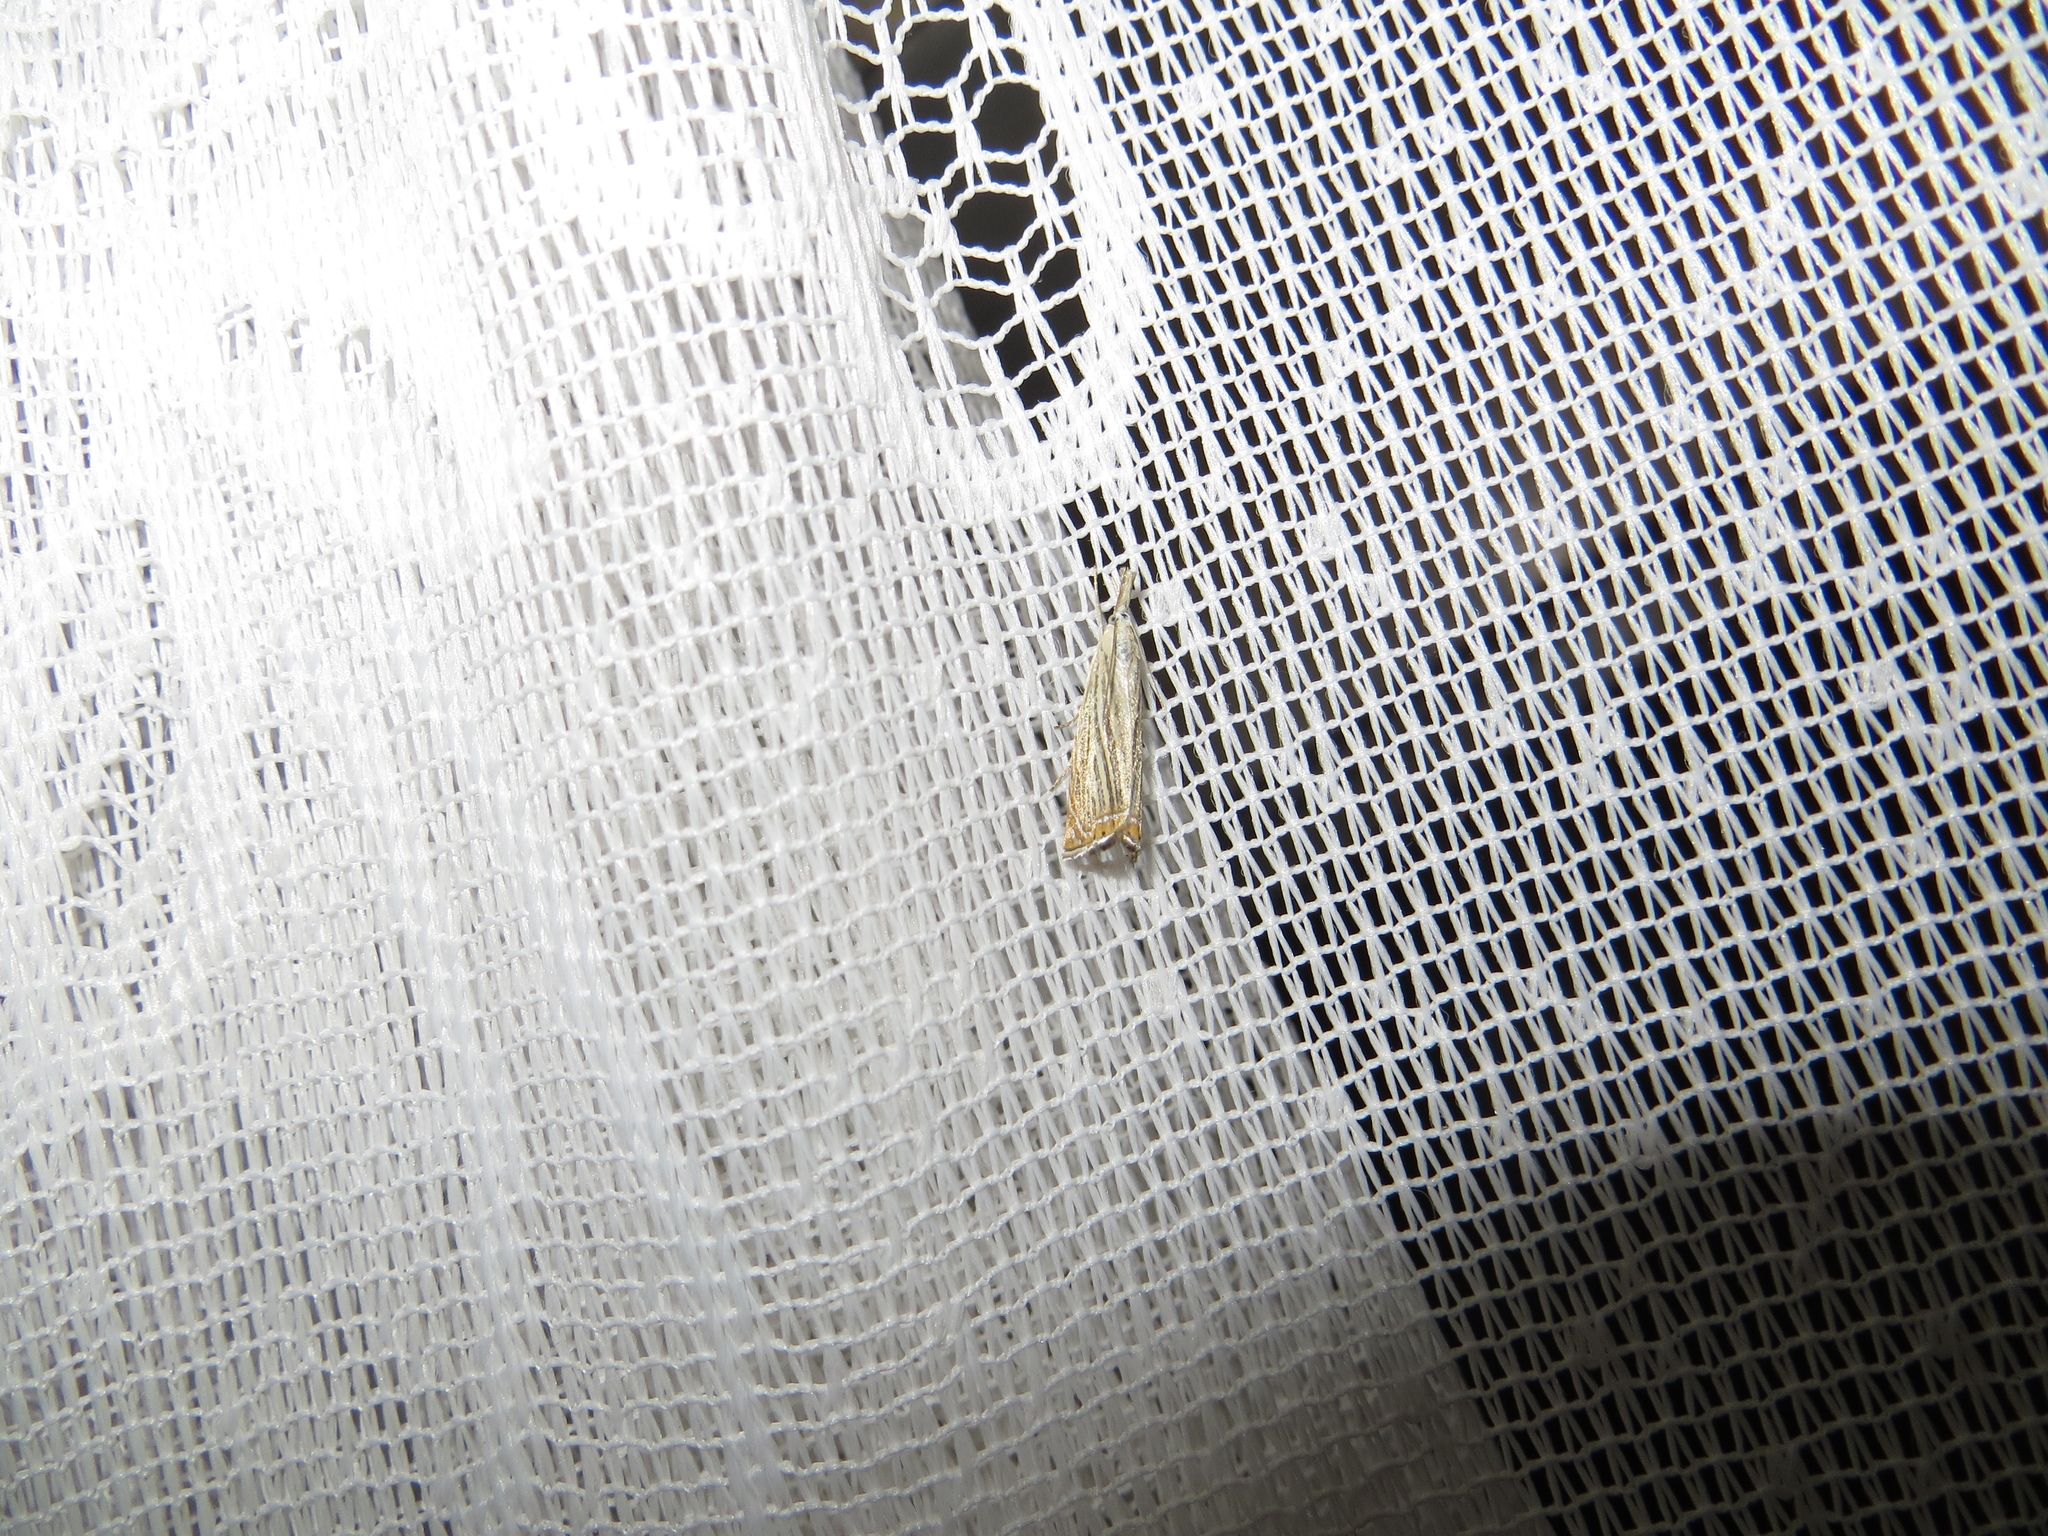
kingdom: Animalia
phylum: Arthropoda
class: Insecta
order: Lepidoptera
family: Crambidae
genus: Chrysoteuchia
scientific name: Chrysoteuchia culmella
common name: Garden grass-veneer
